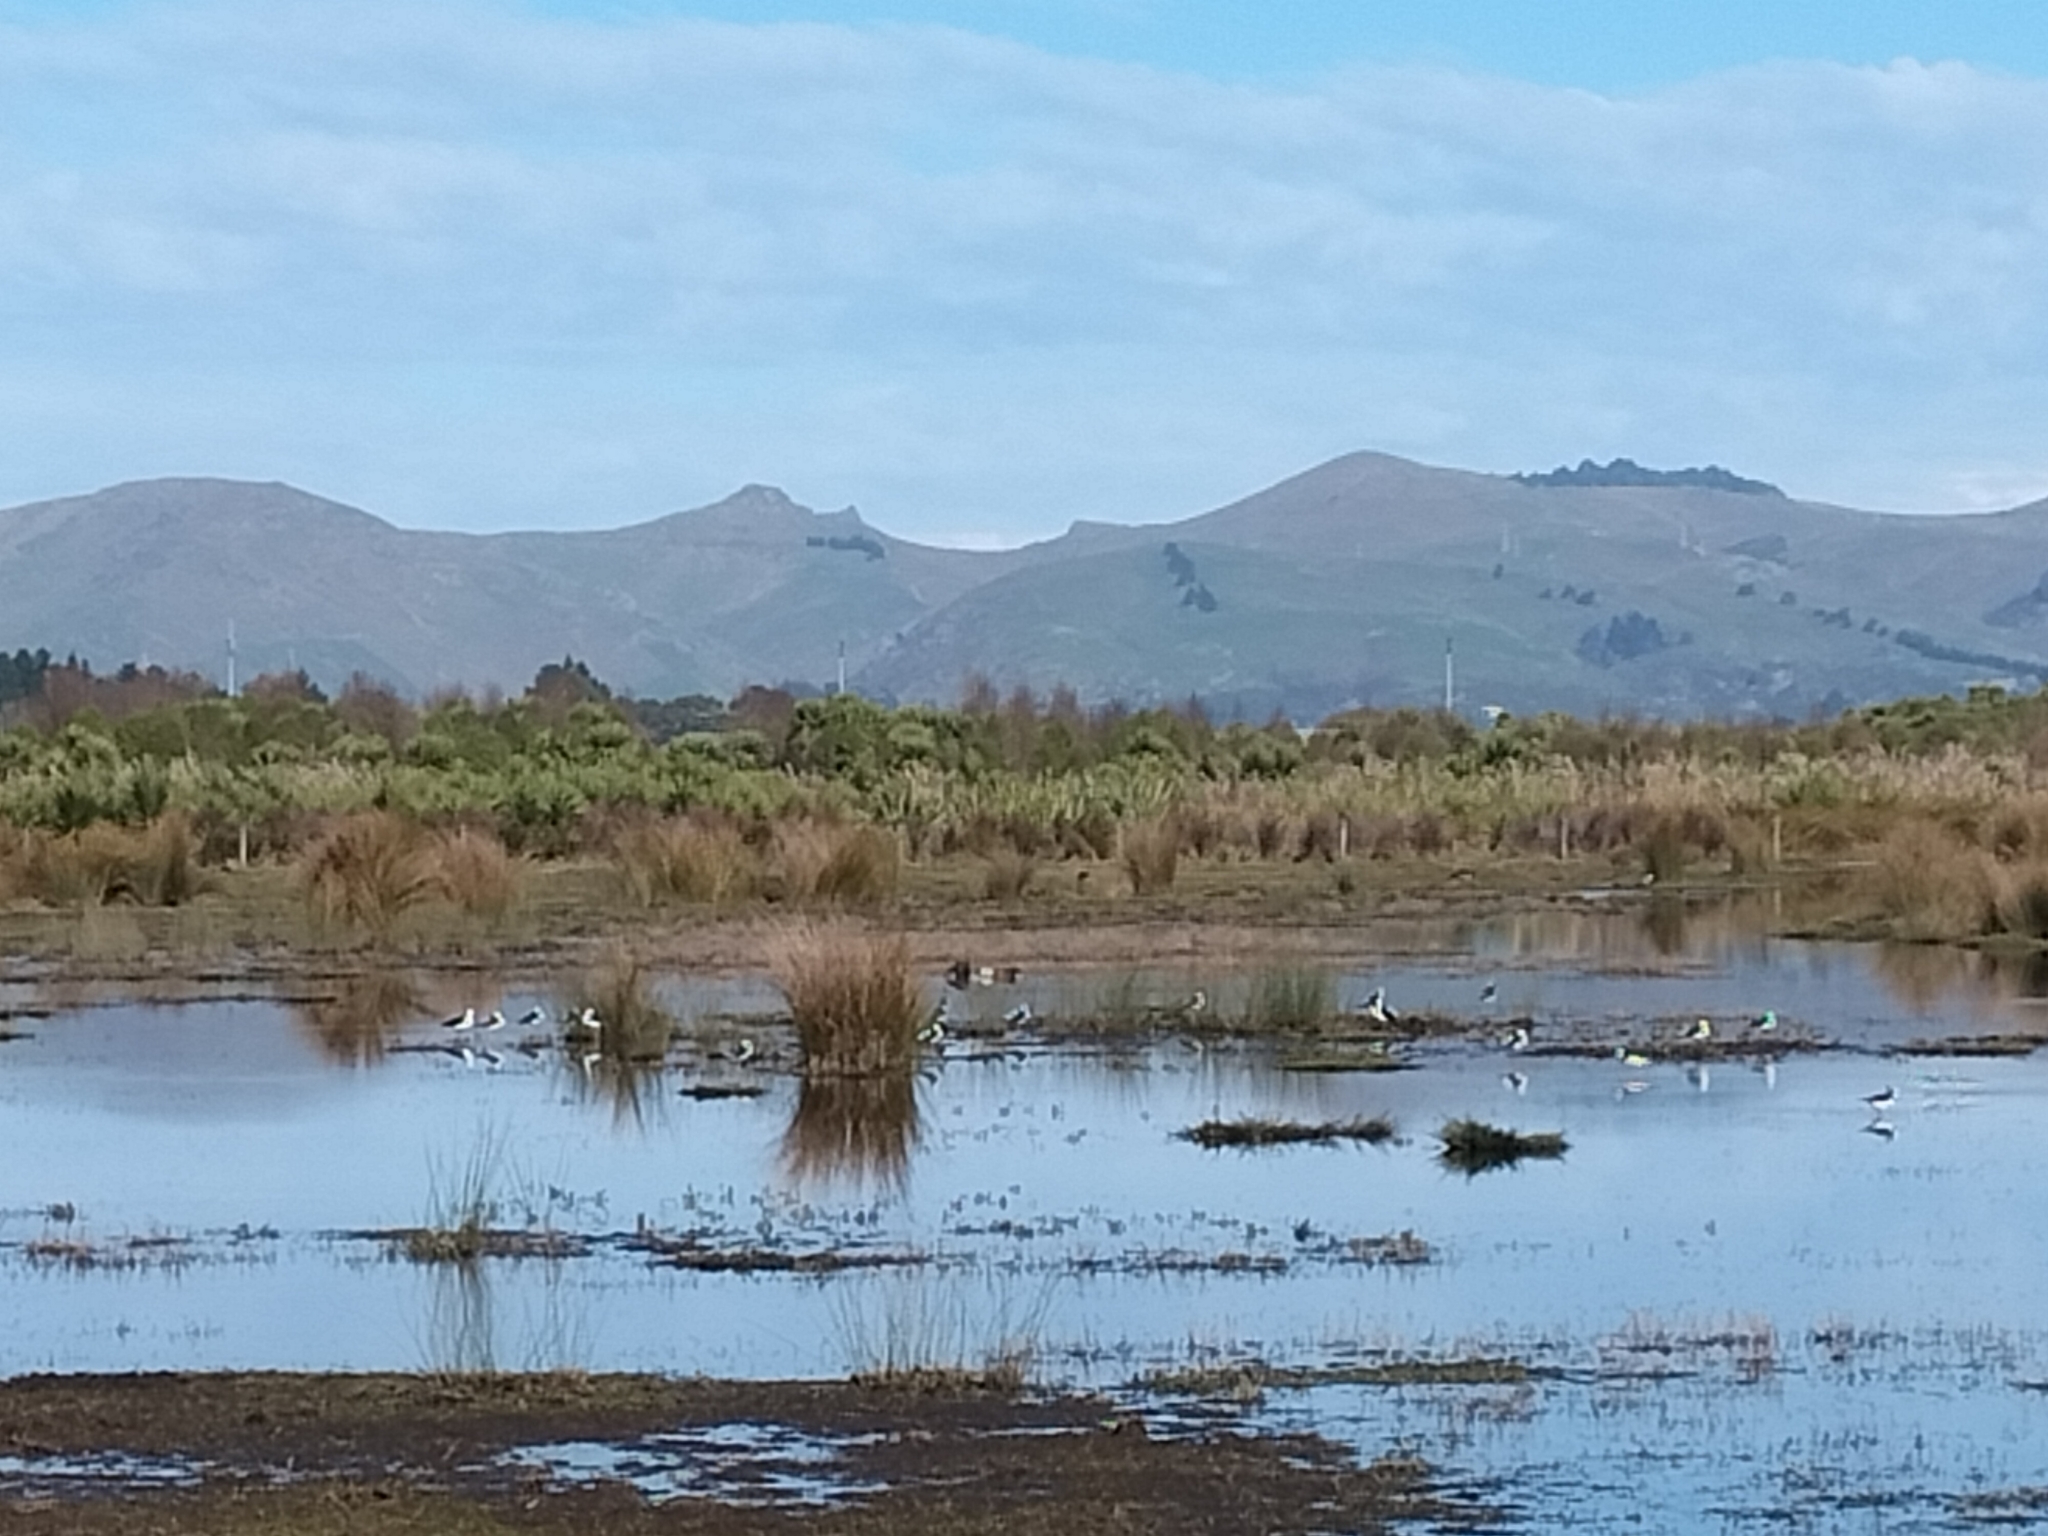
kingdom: Animalia
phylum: Chordata
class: Aves
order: Charadriiformes
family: Recurvirostridae
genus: Himantopus
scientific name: Himantopus leucocephalus
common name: White-headed stilt
